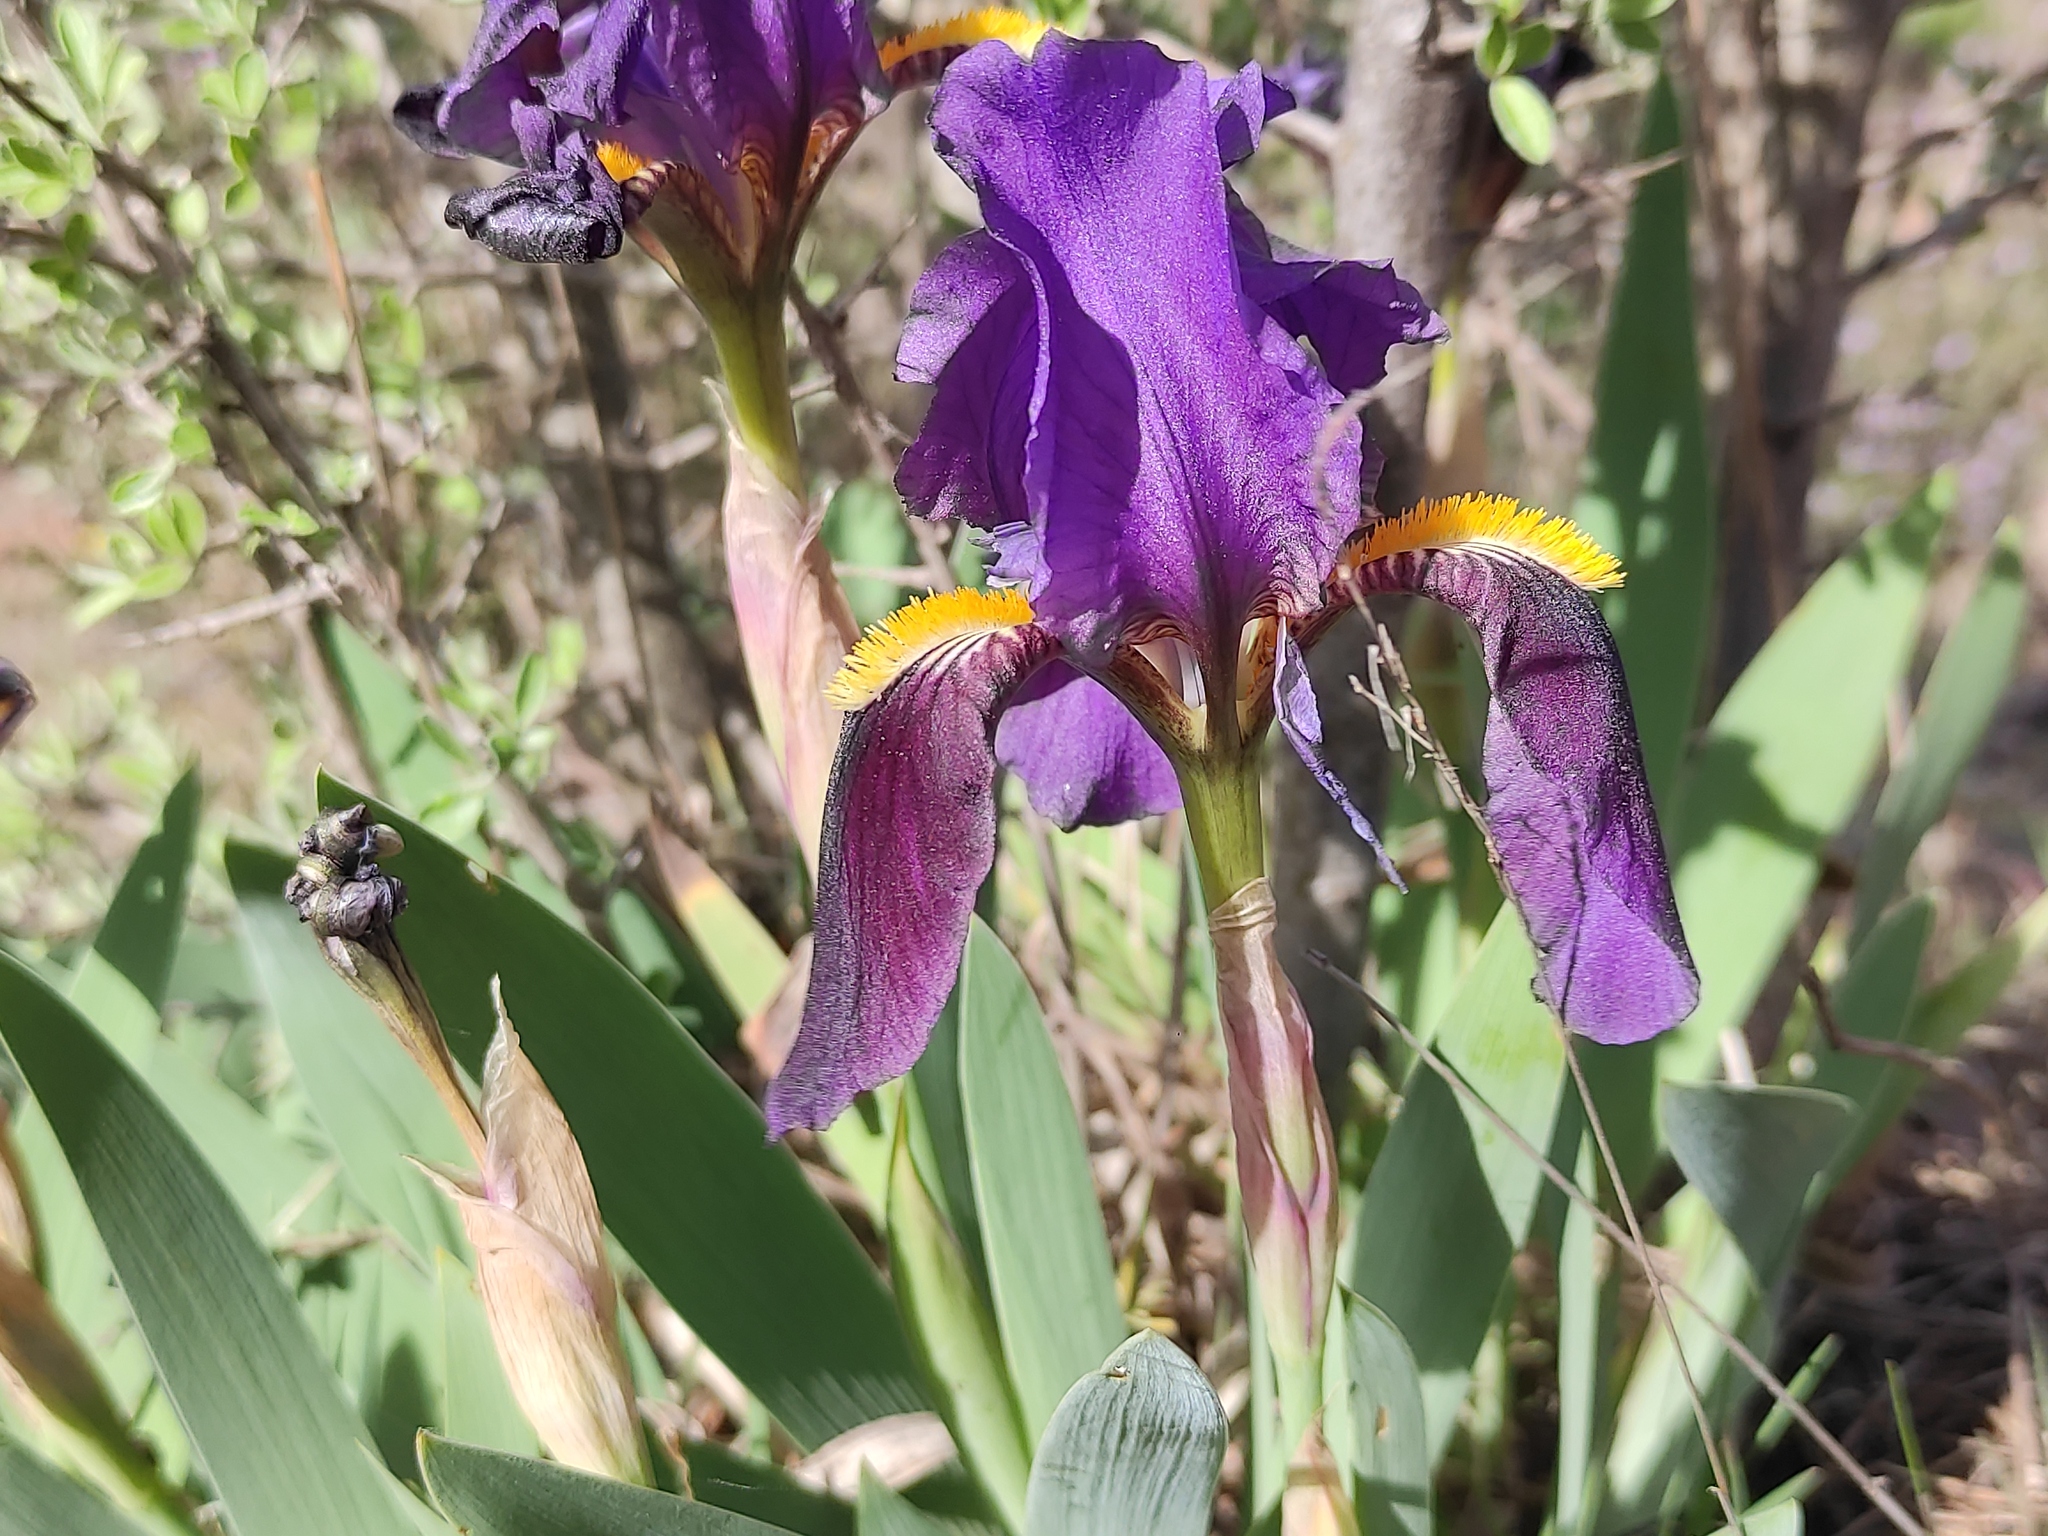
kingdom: Plantae
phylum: Tracheophyta
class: Liliopsida
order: Asparagales
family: Iridaceae
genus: Iris
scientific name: Iris lutescens
